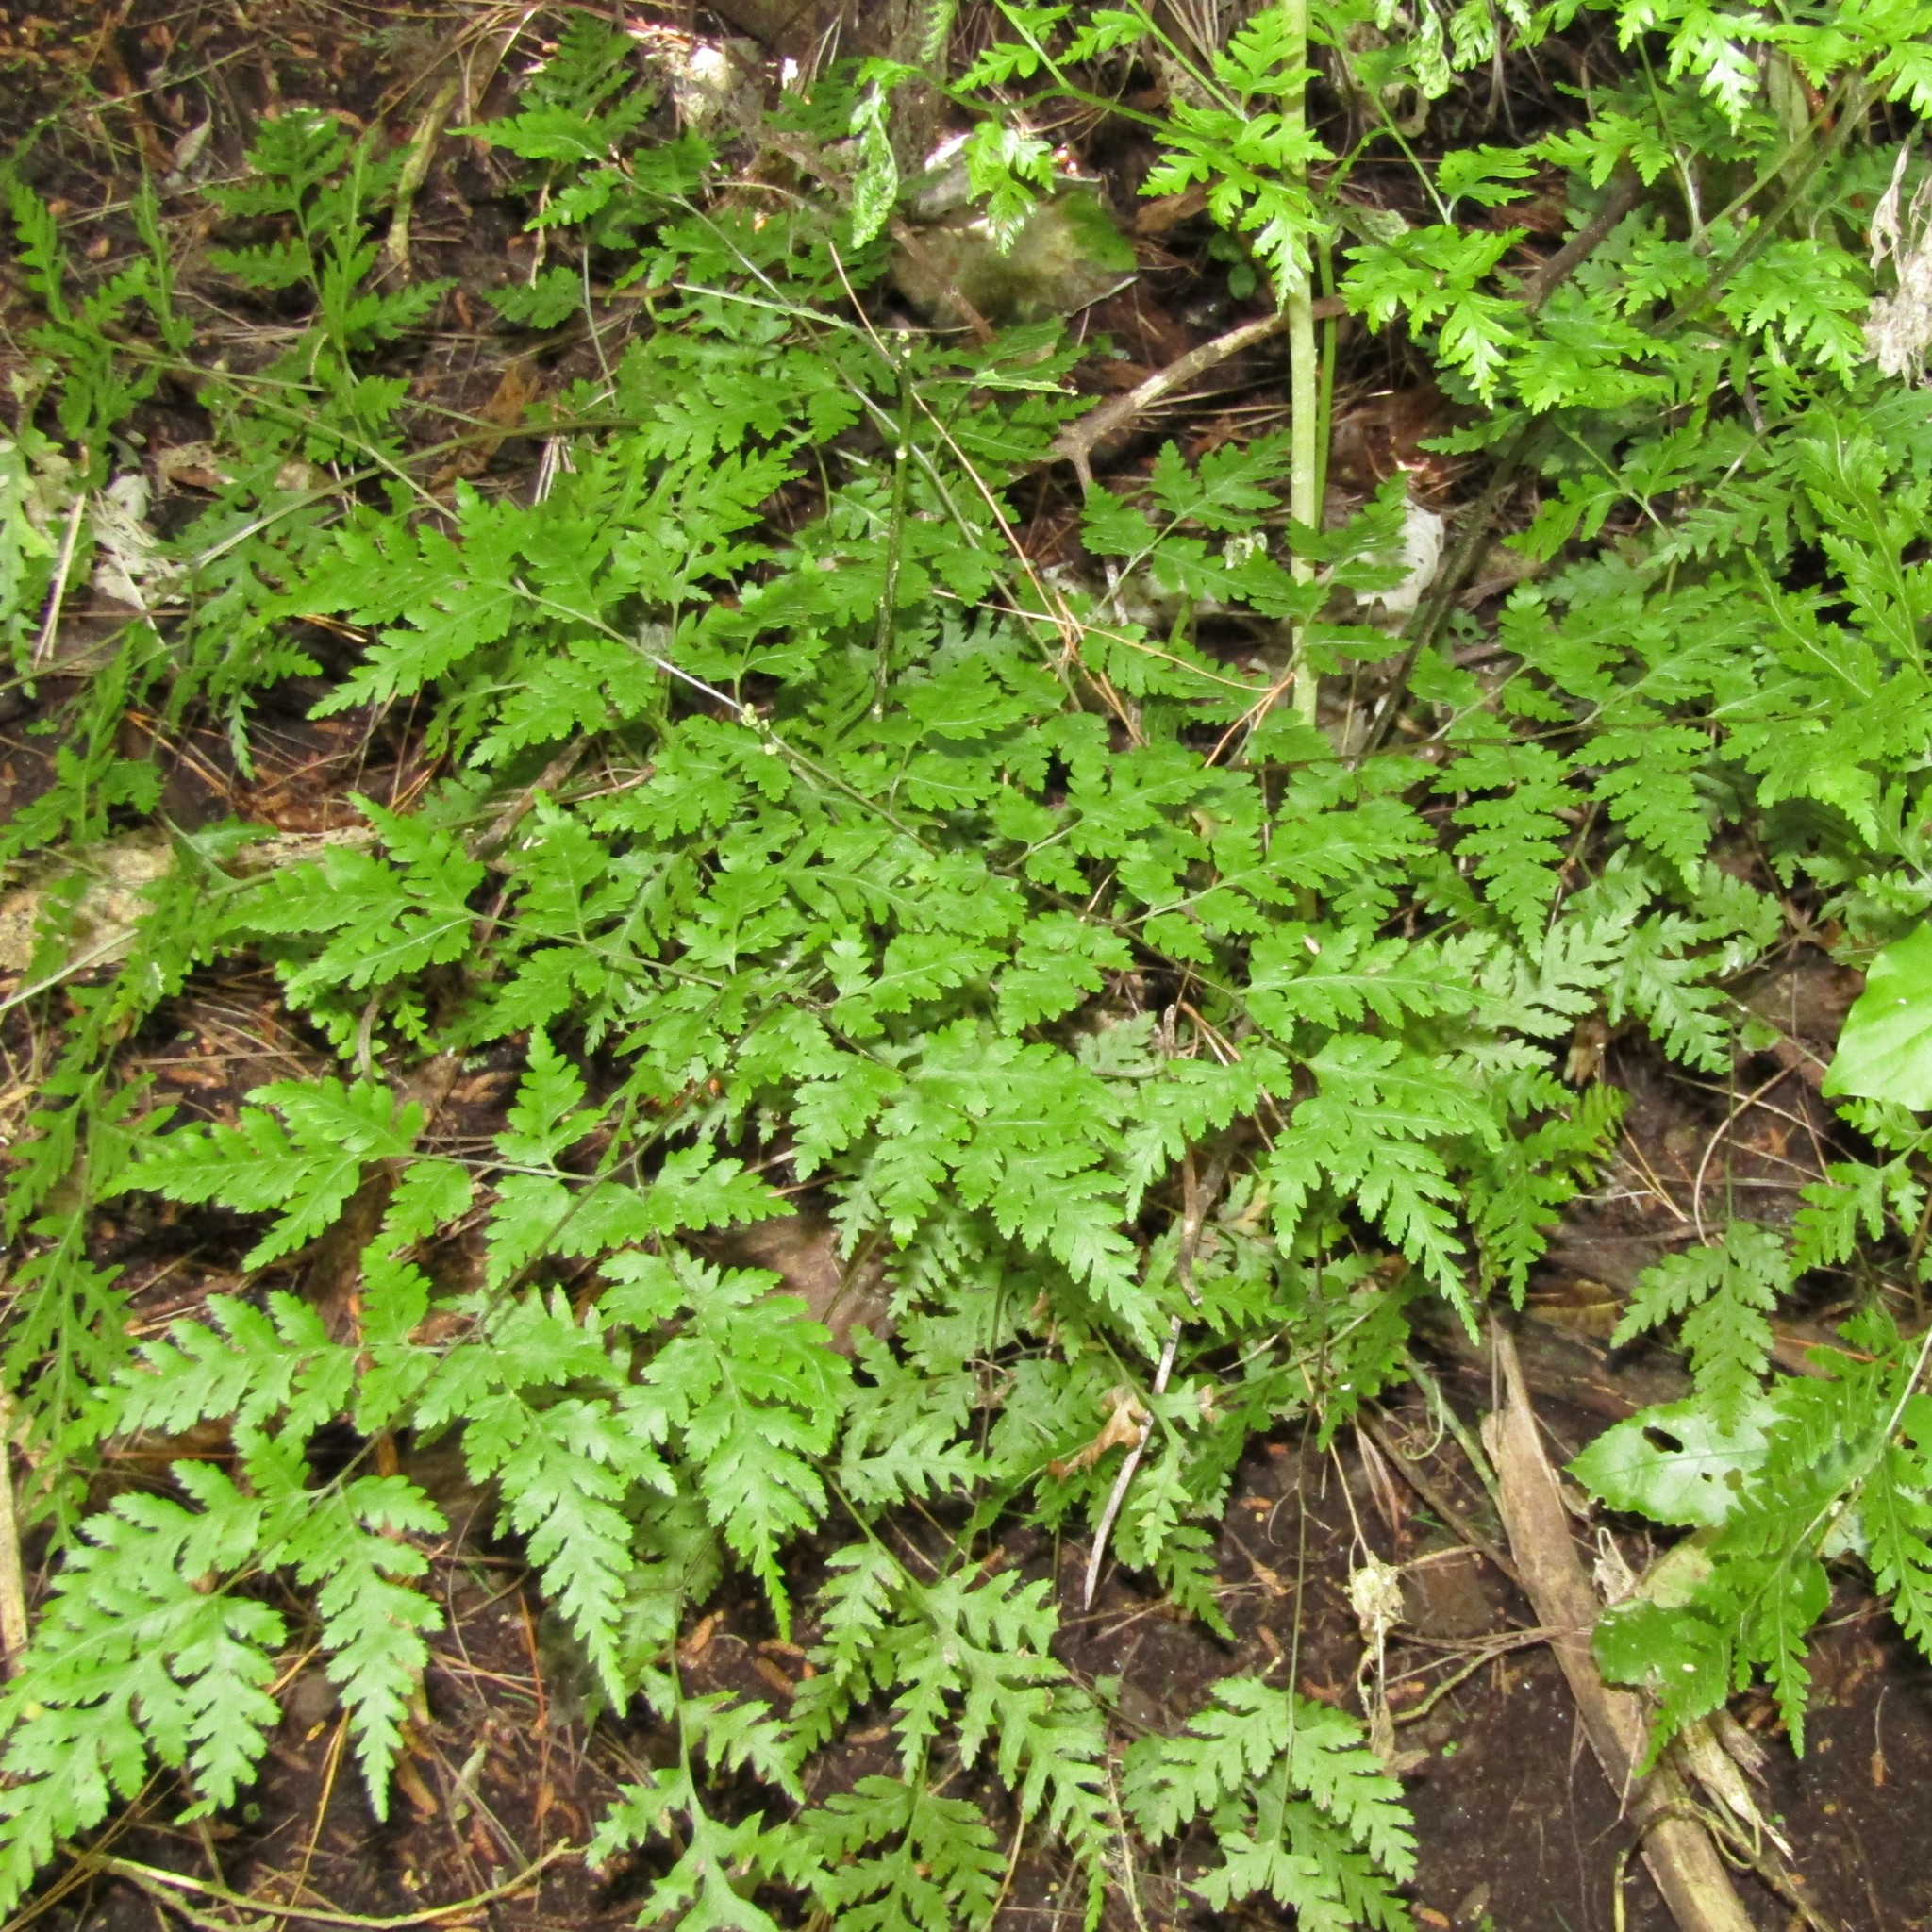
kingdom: Plantae
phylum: Tracheophyta
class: Polypodiopsida
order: Polypodiales
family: Pteridaceae
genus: Pteris
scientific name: Pteris macilenta
